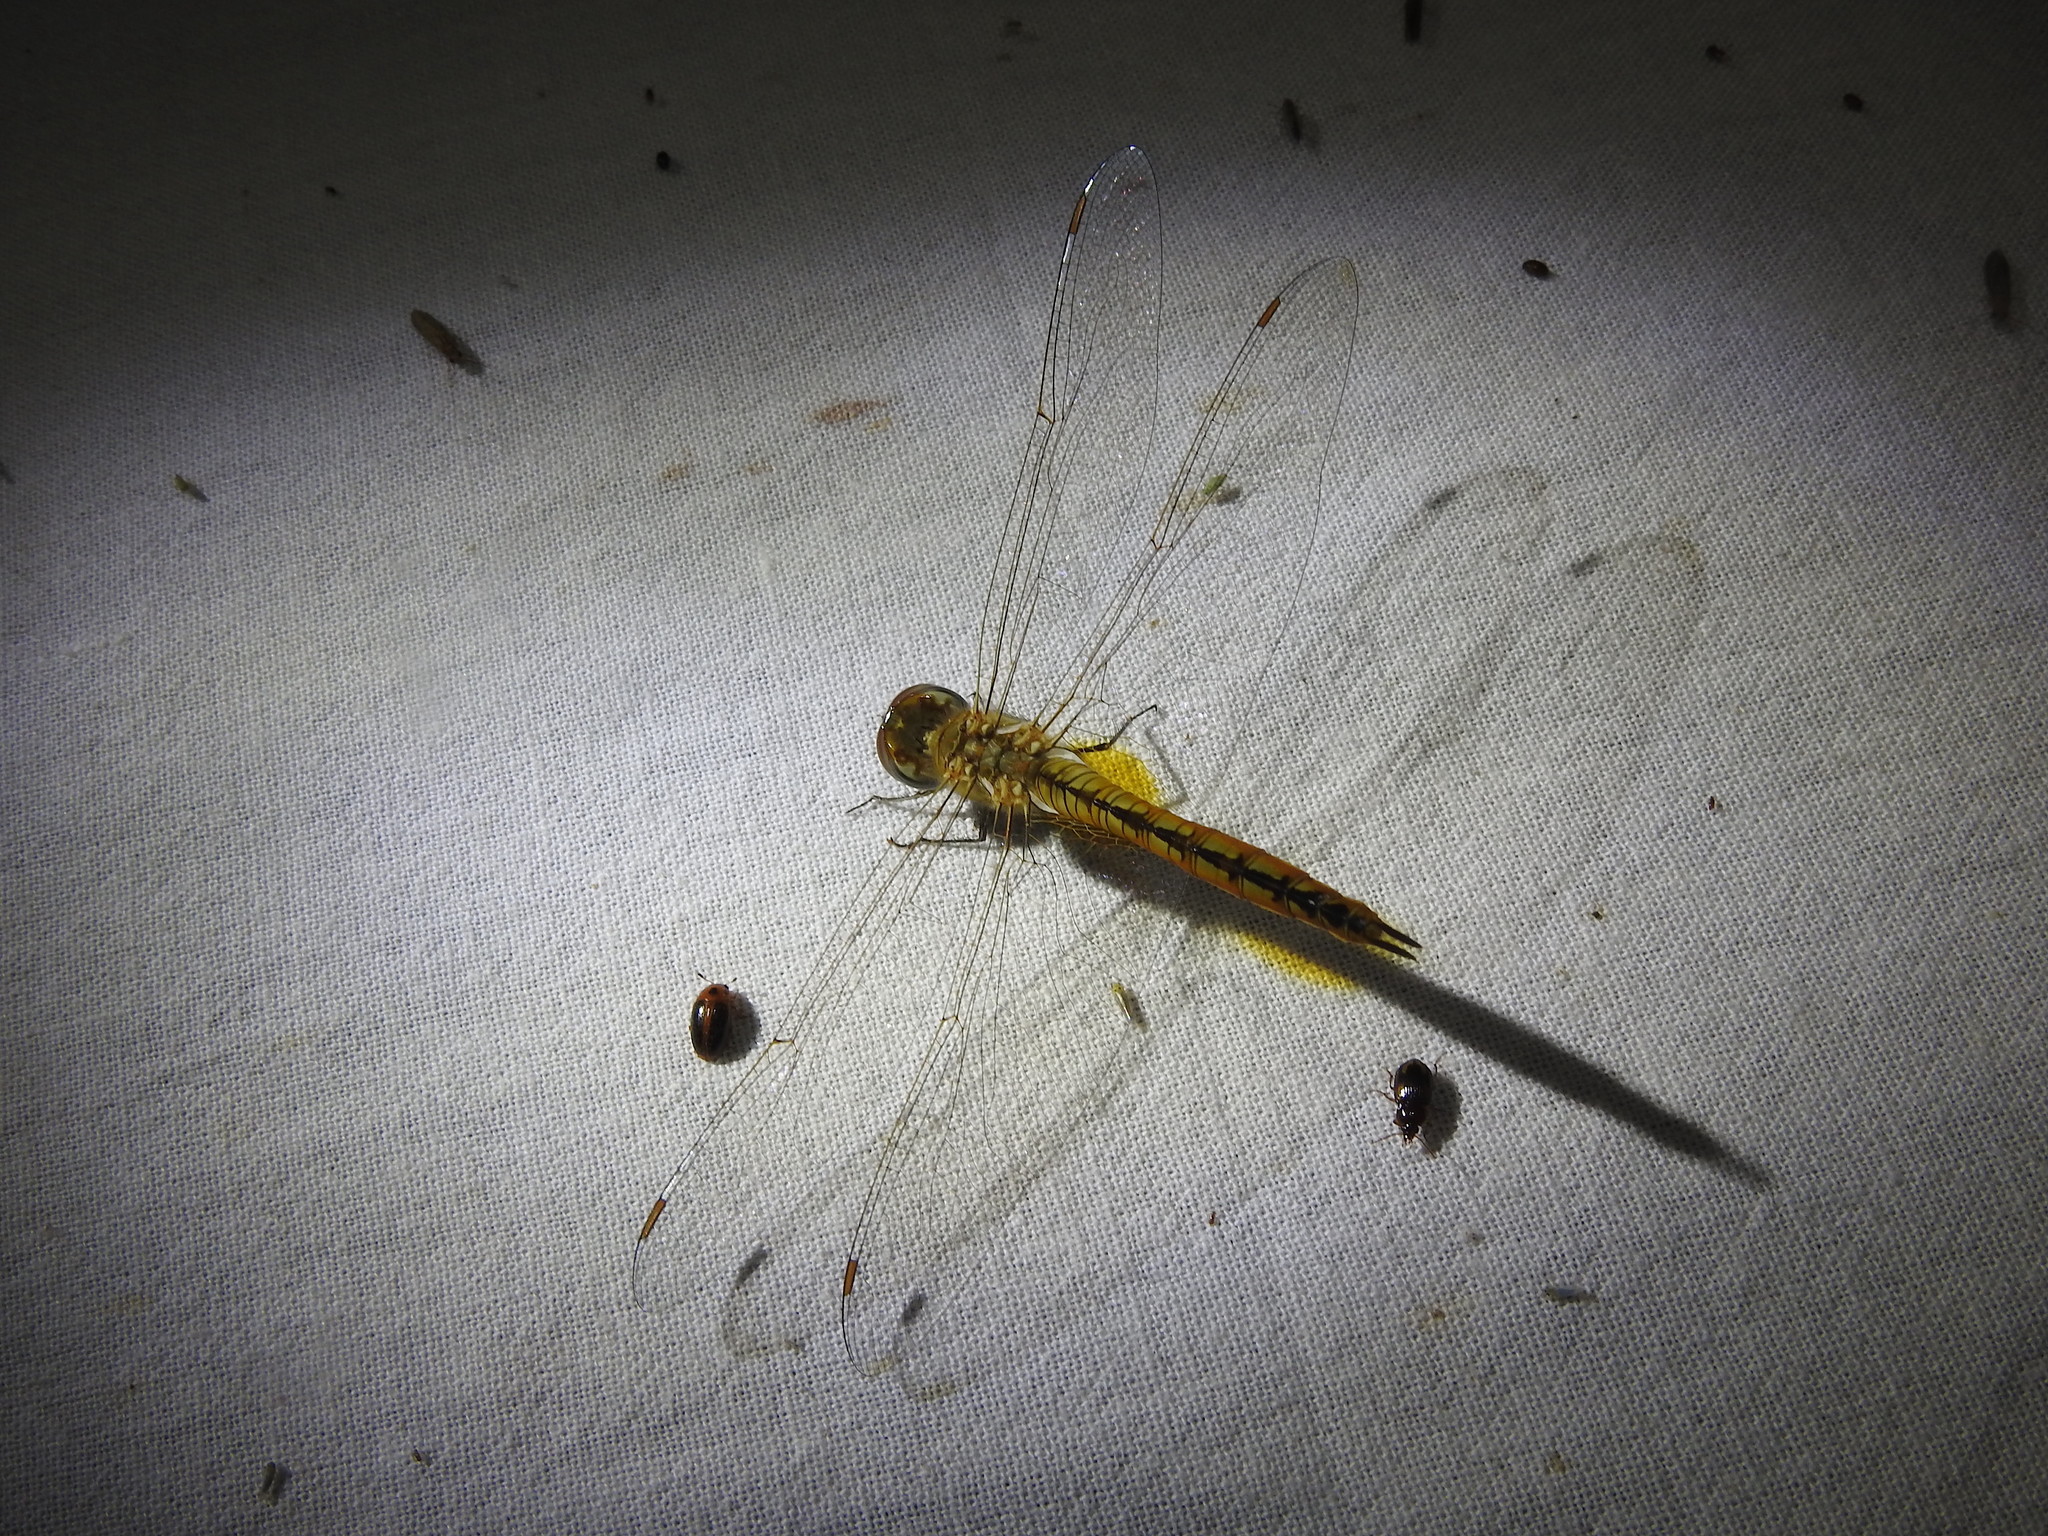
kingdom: Animalia
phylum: Arthropoda
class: Insecta
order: Odonata
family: Libellulidae
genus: Pantala
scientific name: Pantala flavescens
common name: Wandering glider
